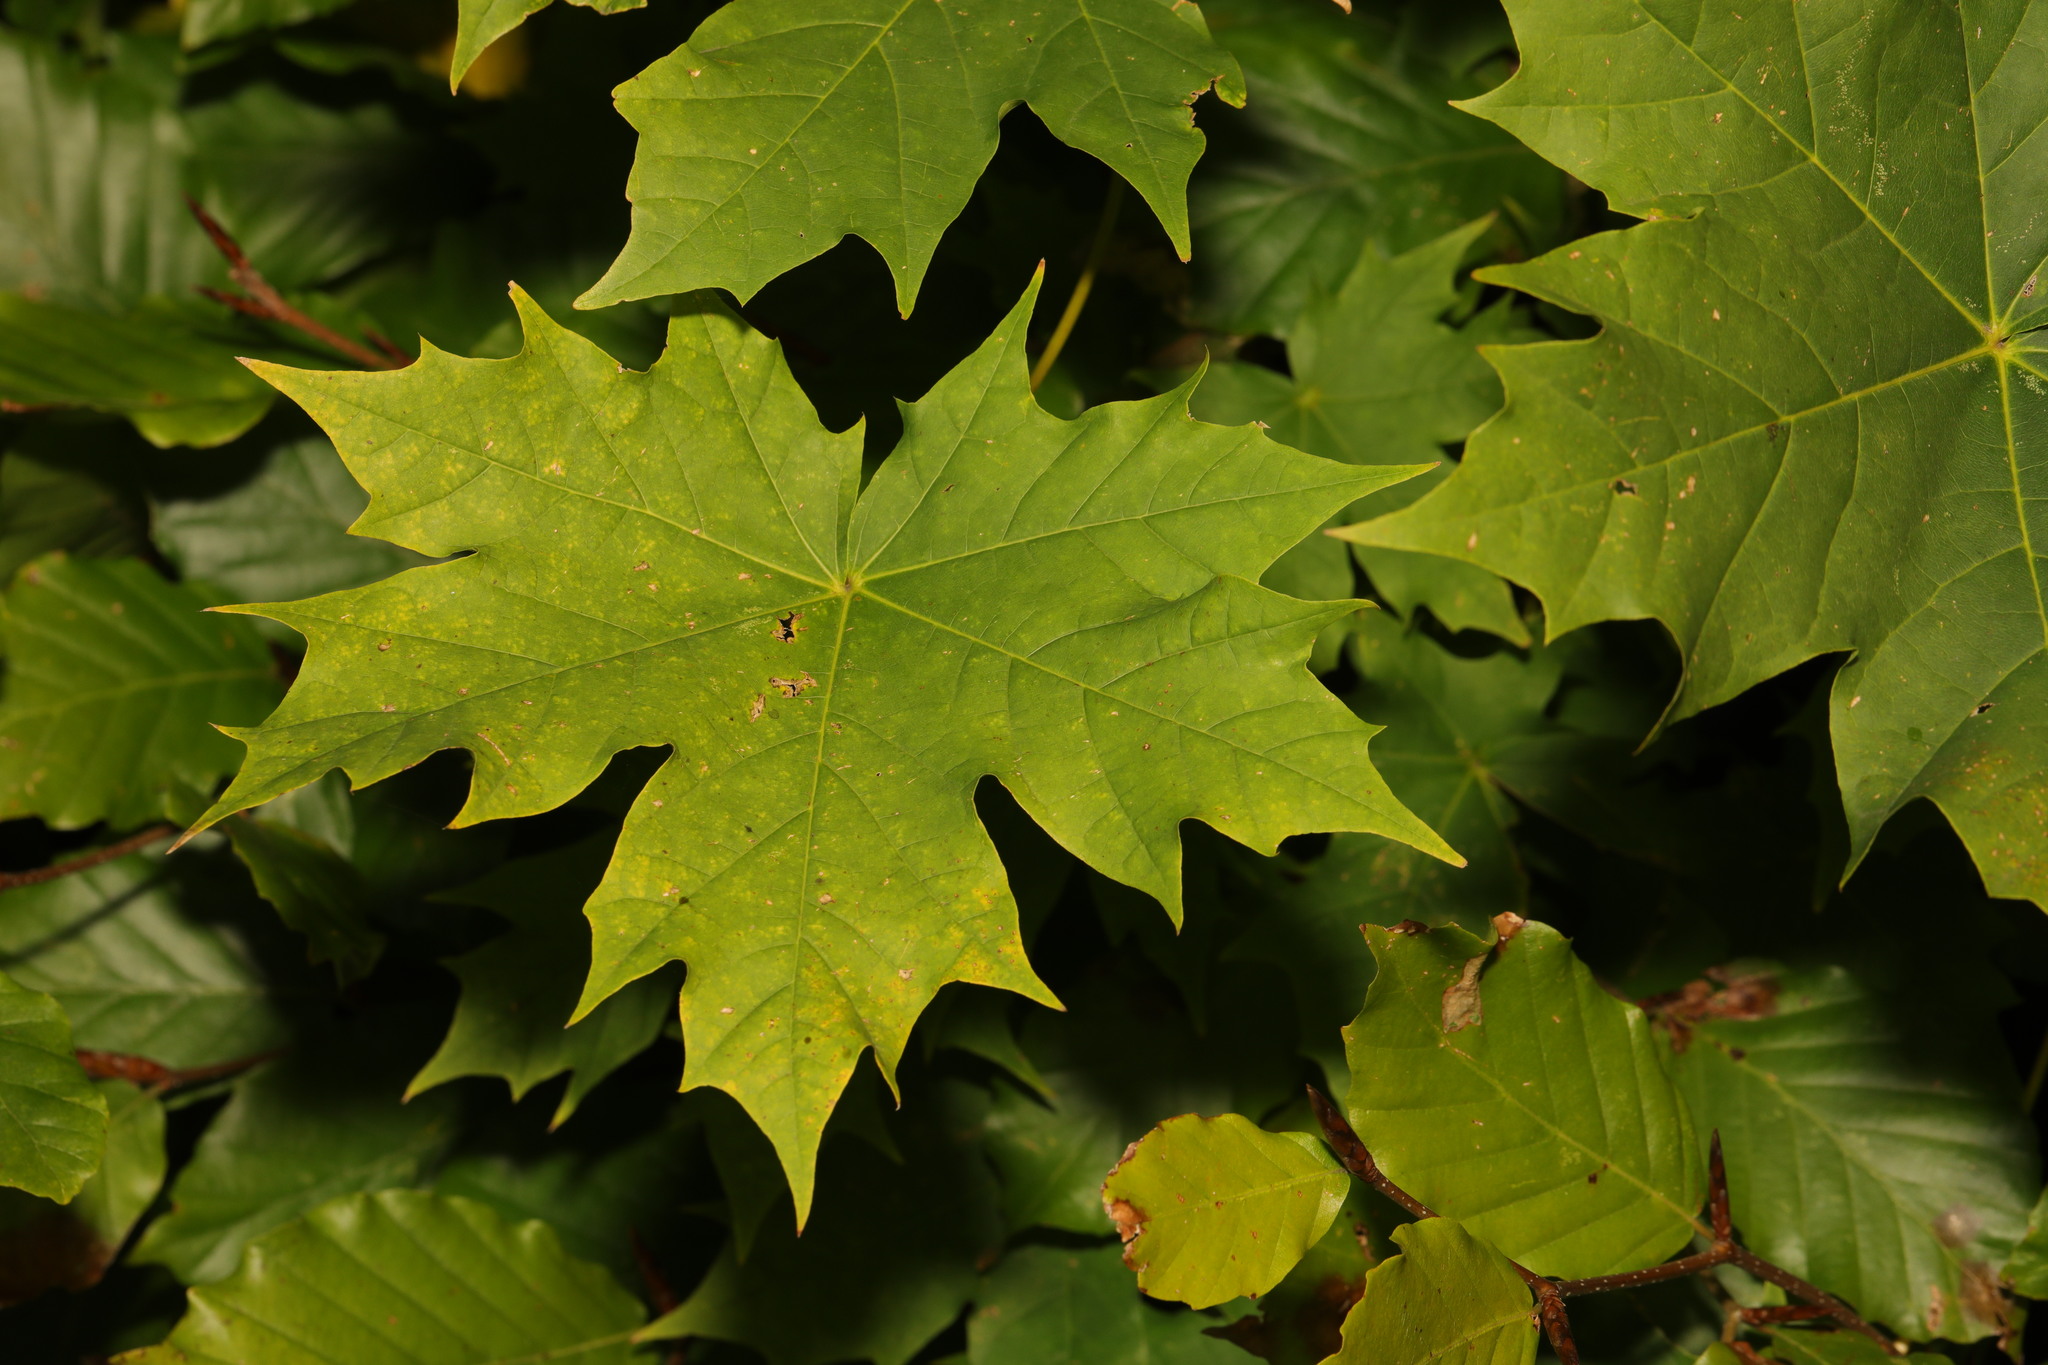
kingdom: Plantae
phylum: Tracheophyta
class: Magnoliopsida
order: Sapindales
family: Sapindaceae
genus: Acer
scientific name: Acer platanoides
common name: Norway maple
